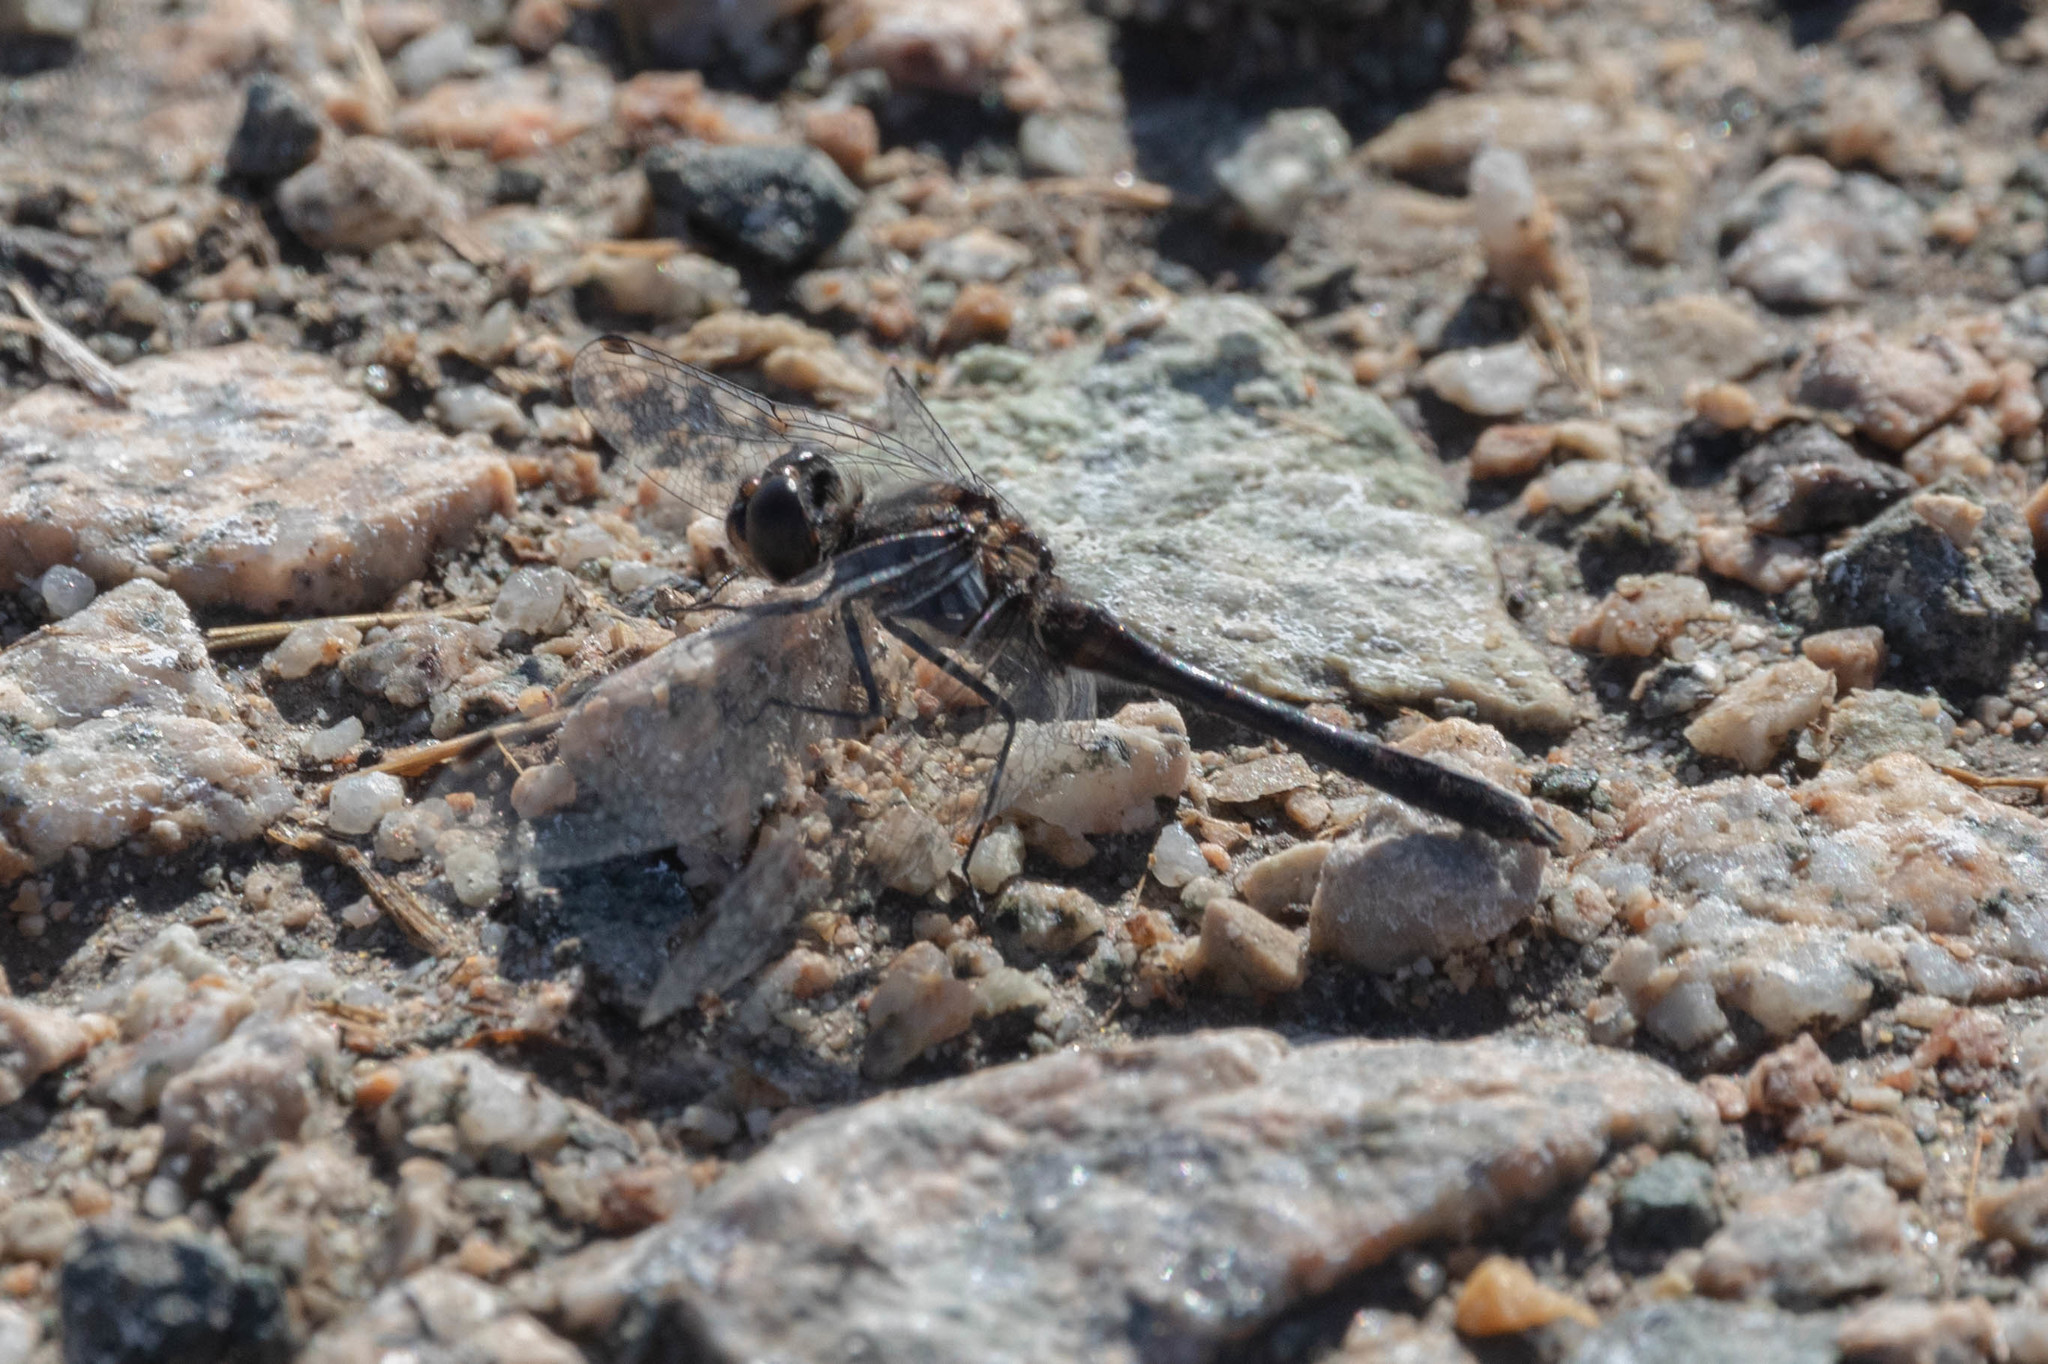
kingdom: Animalia
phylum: Arthropoda
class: Insecta
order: Odonata
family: Libellulidae
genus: Sympetrum
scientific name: Sympetrum danae
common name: Black darter
